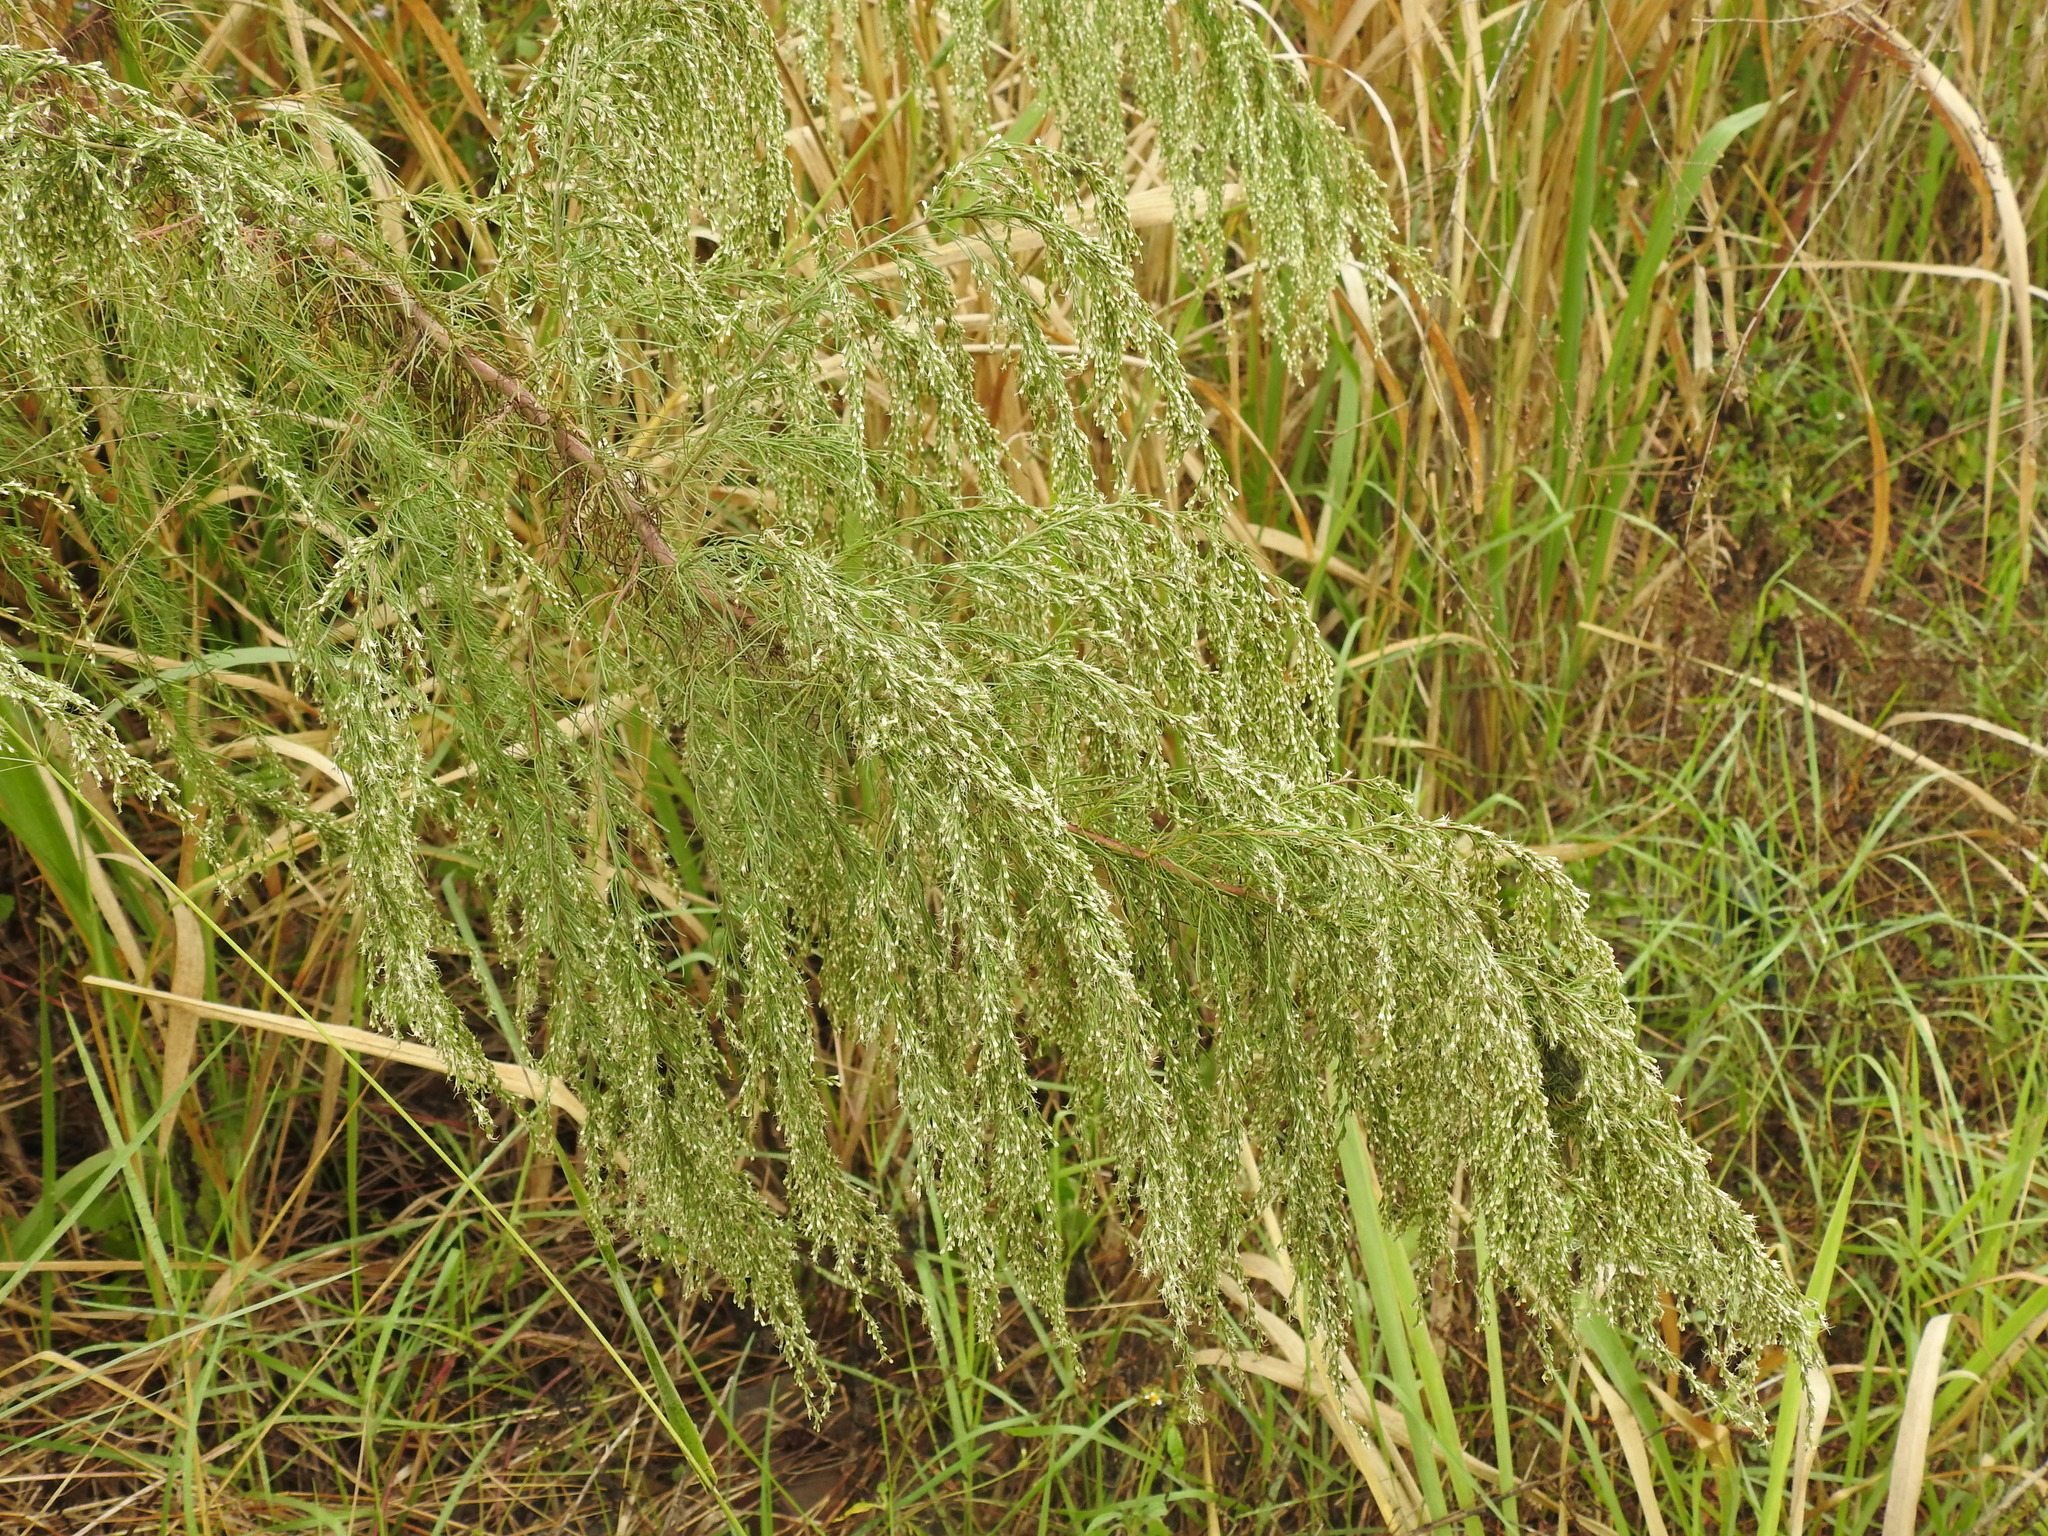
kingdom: Plantae
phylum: Tracheophyta
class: Magnoliopsida
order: Asterales
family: Asteraceae
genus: Eupatorium
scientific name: Eupatorium capillifolium
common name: Dog-fennel
